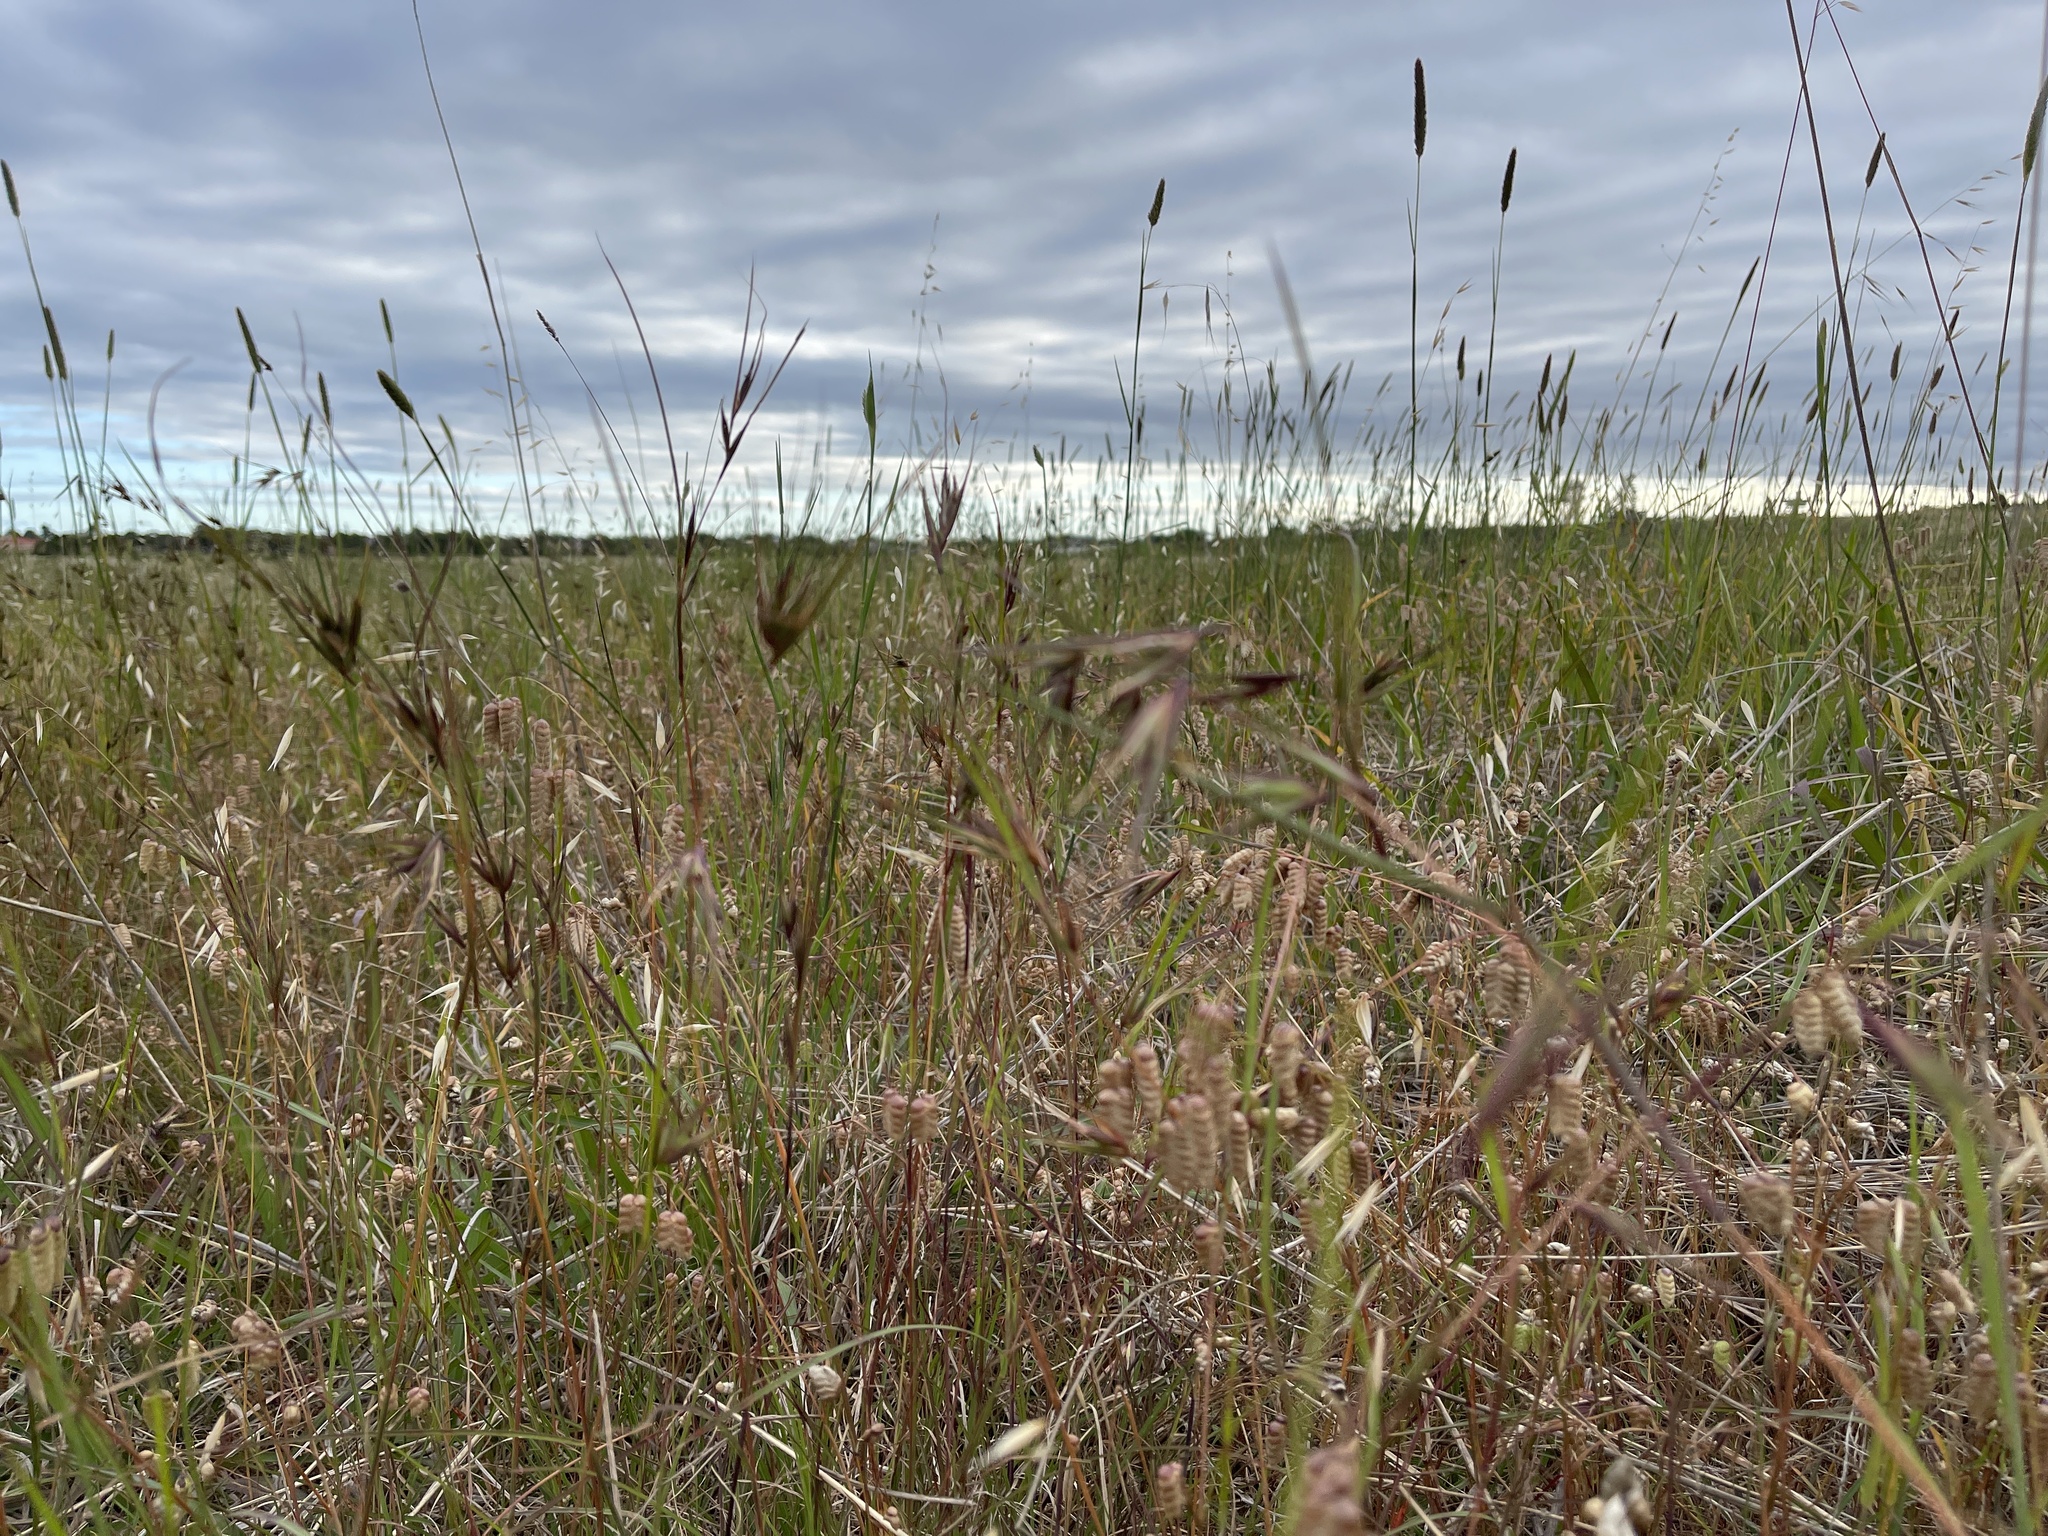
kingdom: Plantae
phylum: Tracheophyta
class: Liliopsida
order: Poales
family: Poaceae
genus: Themeda
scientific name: Themeda triandra
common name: Kangaroo grass
